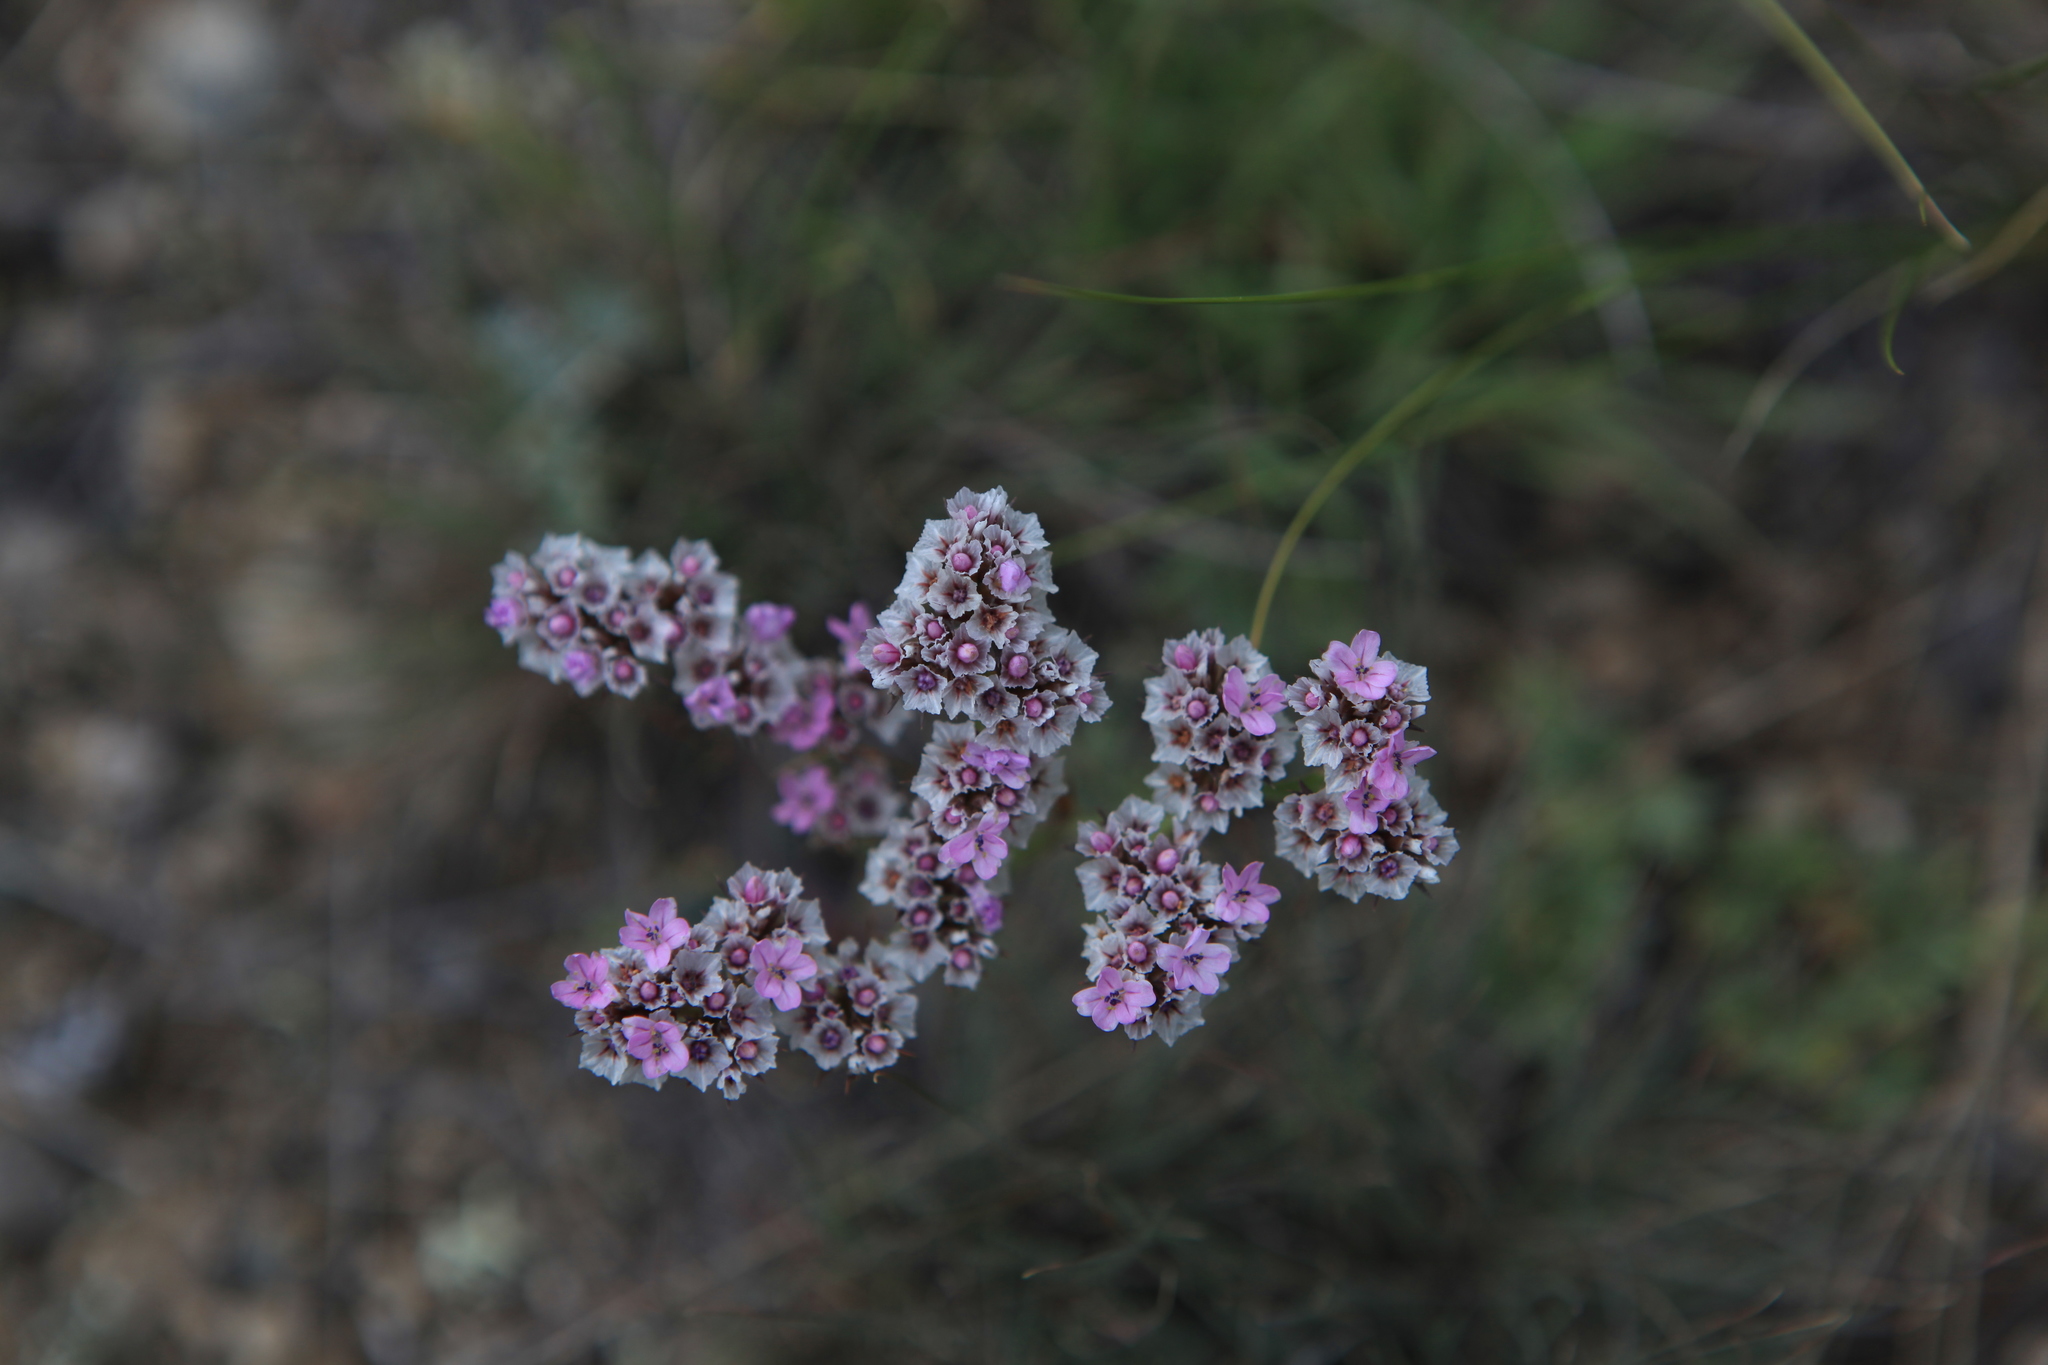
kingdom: Plantae
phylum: Tracheophyta
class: Magnoliopsida
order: Caryophyllales
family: Plumbaginaceae
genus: Goniolimon
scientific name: Goniolimon speciosum
